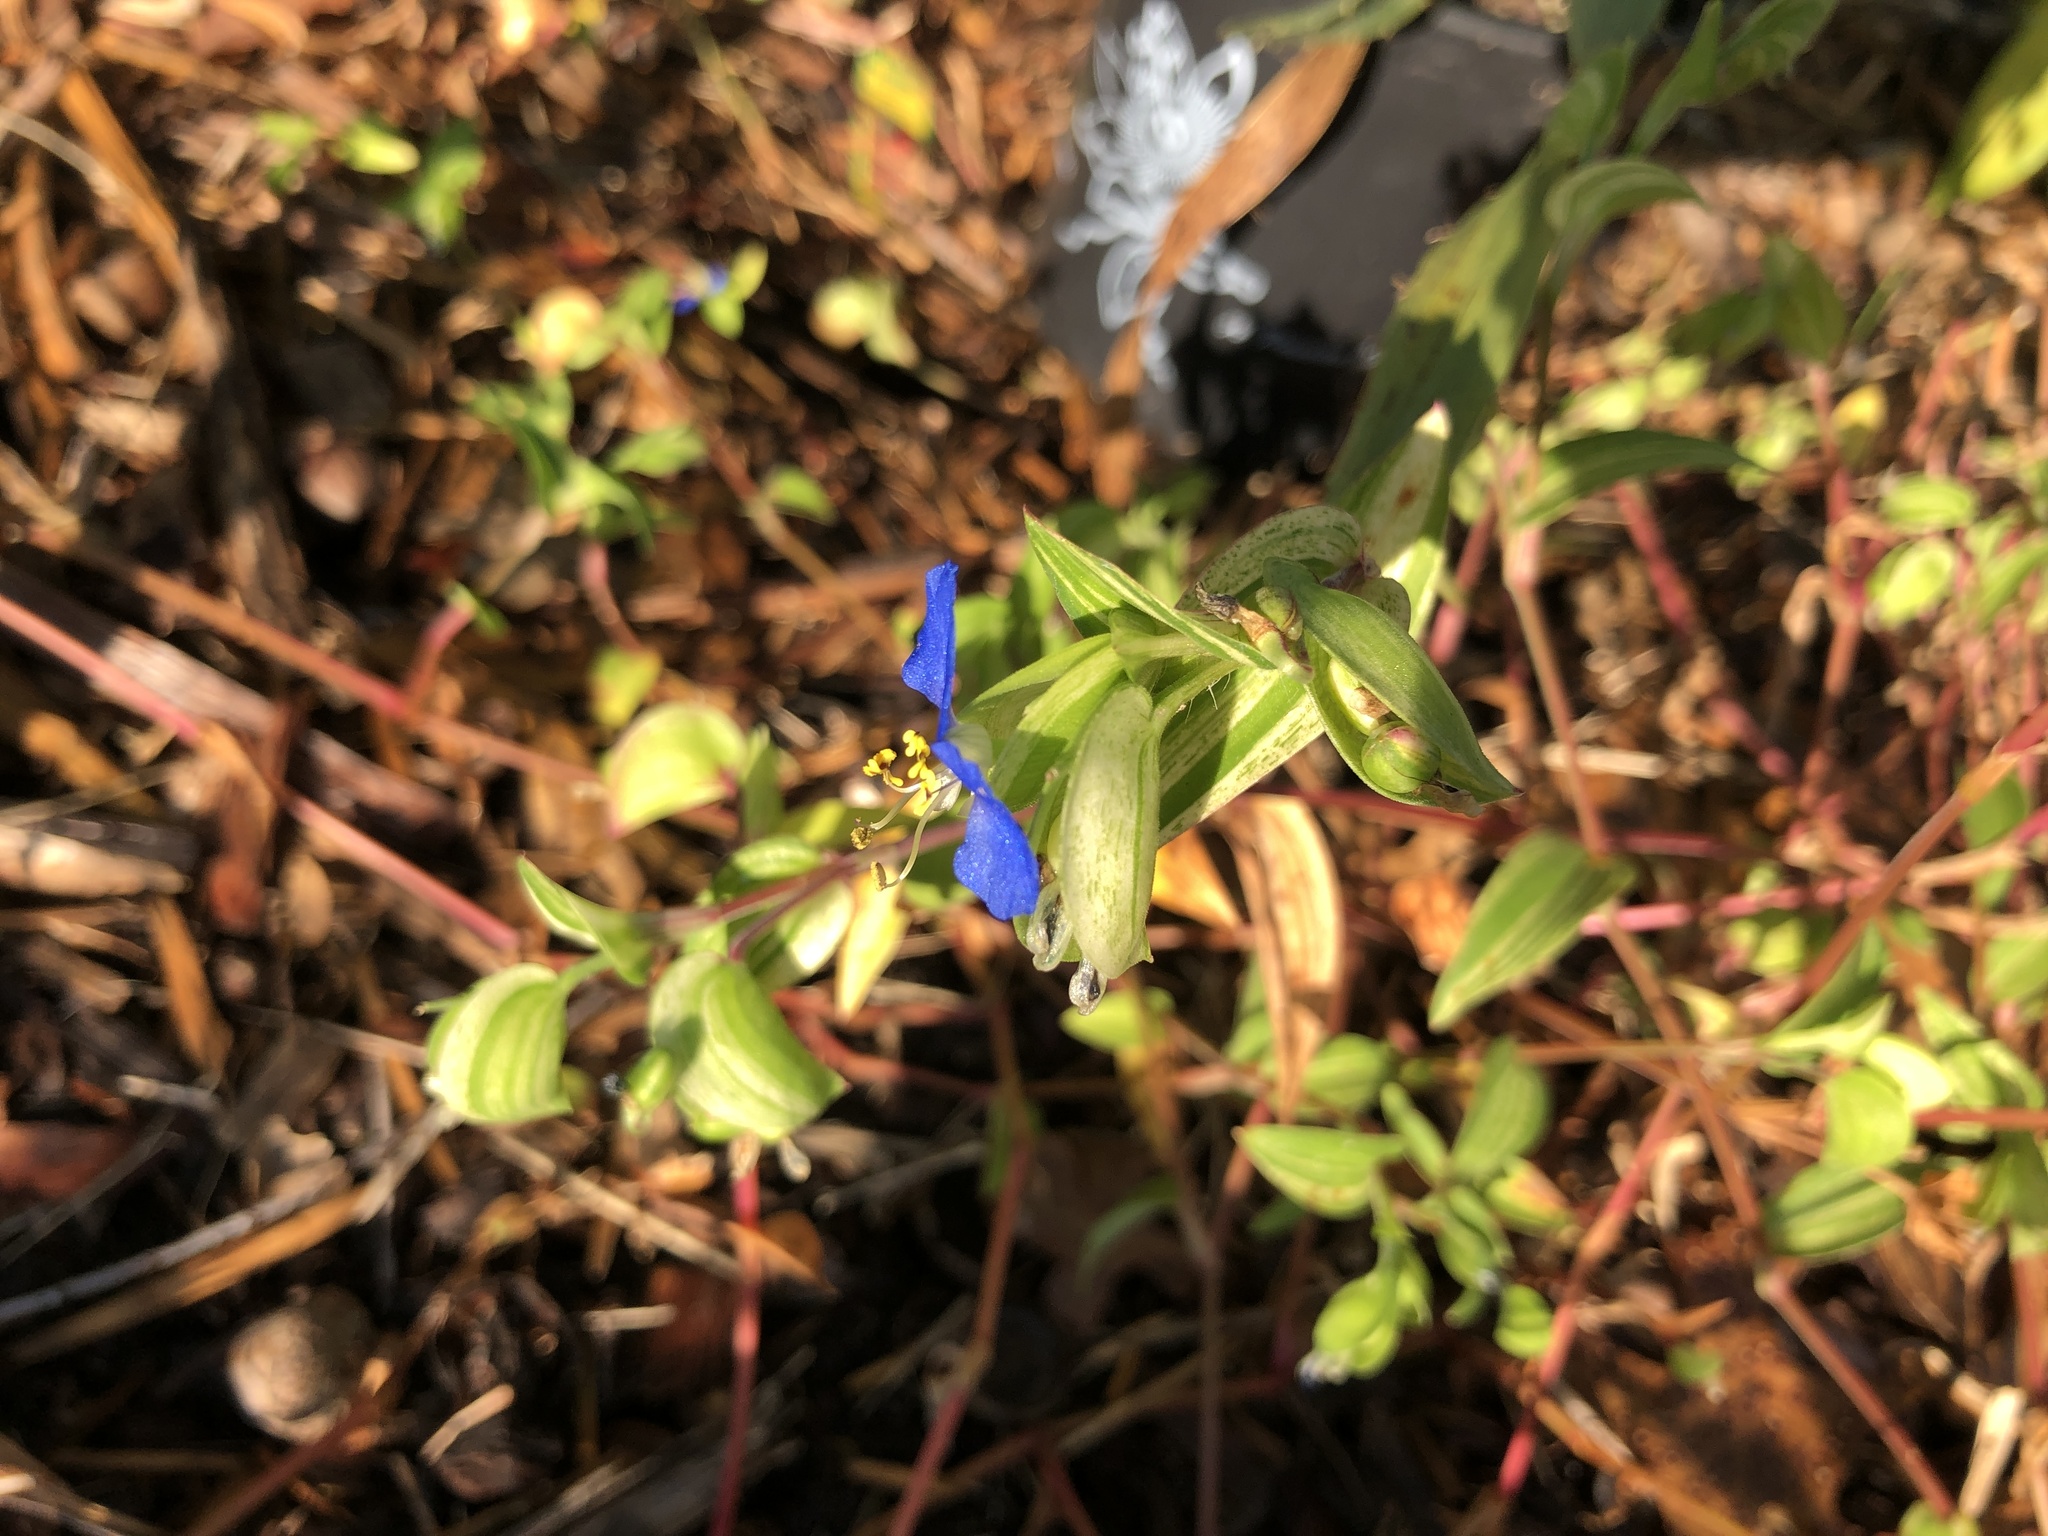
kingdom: Plantae
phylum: Tracheophyta
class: Liliopsida
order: Commelinales
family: Commelinaceae
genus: Commelina
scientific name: Commelina erecta
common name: Blousel blommetjie
